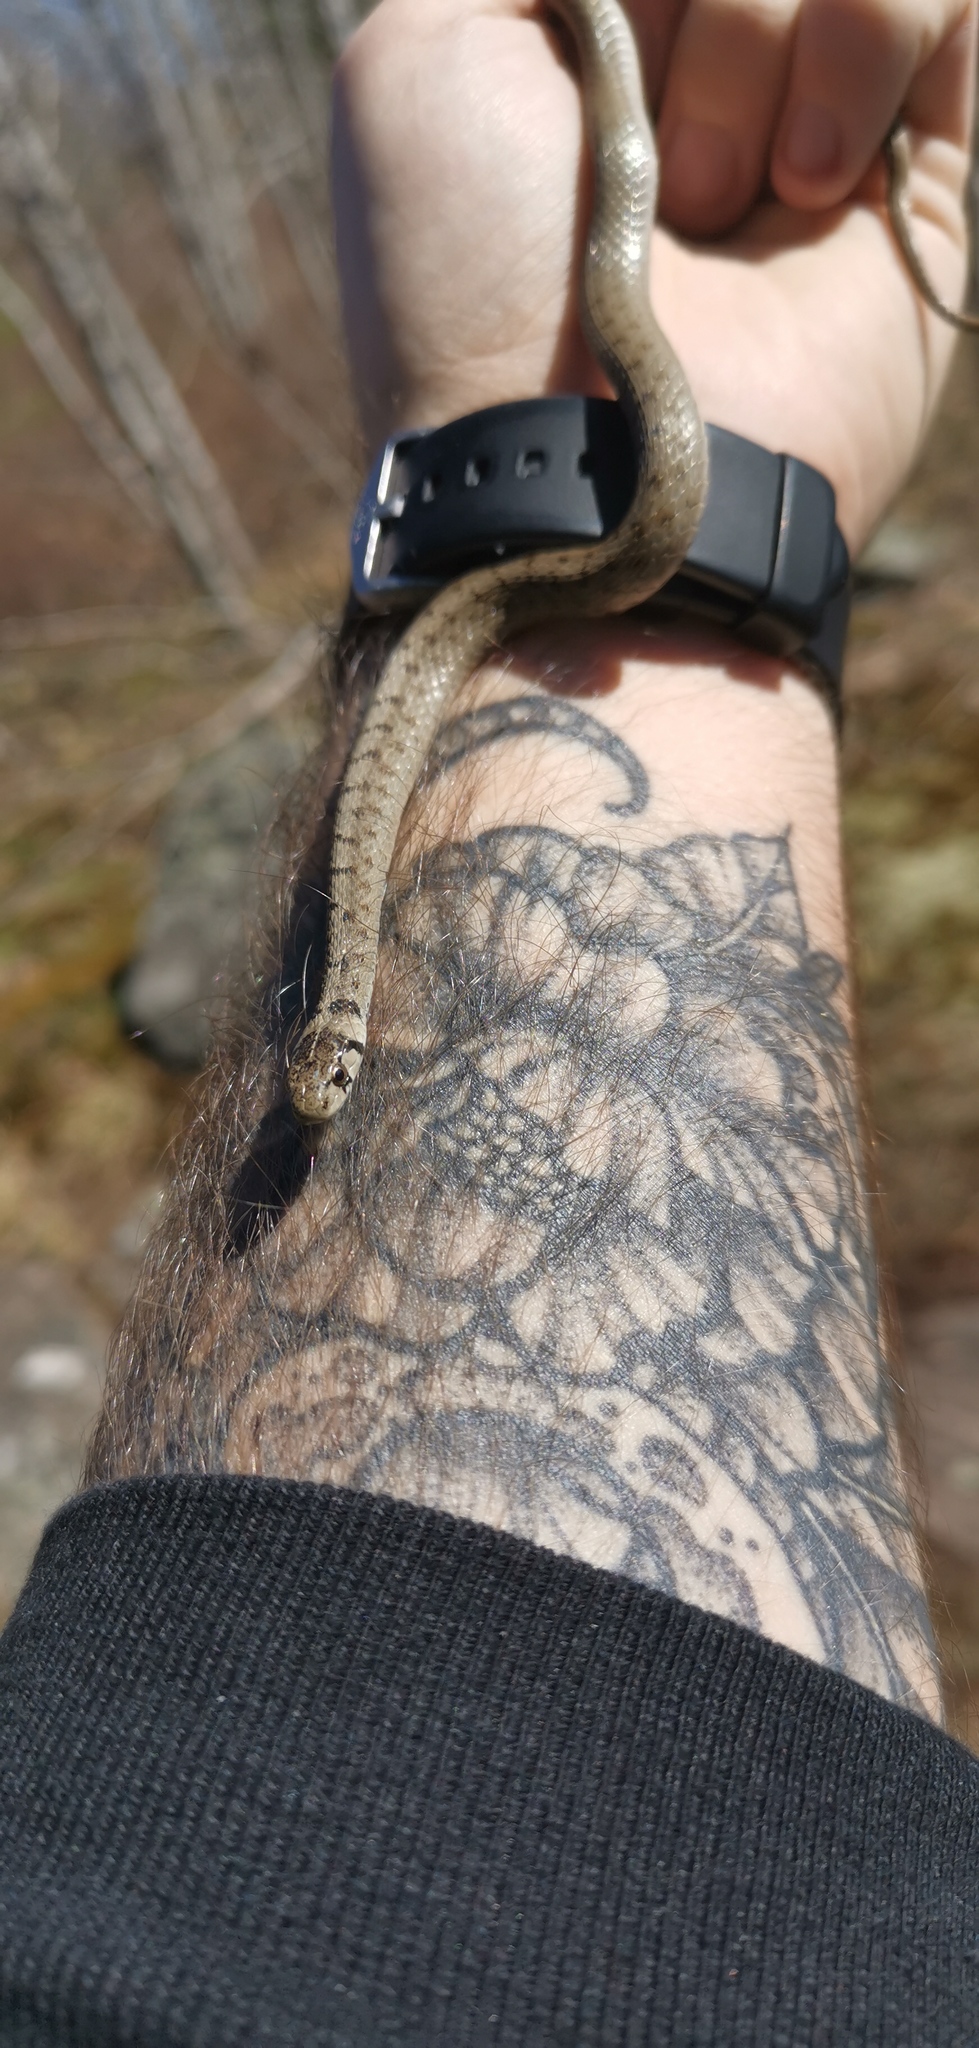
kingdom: Animalia
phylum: Chordata
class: Squamata
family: Colubridae
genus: Storeria
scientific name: Storeria dekayi
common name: (dekay’s) brown snake
